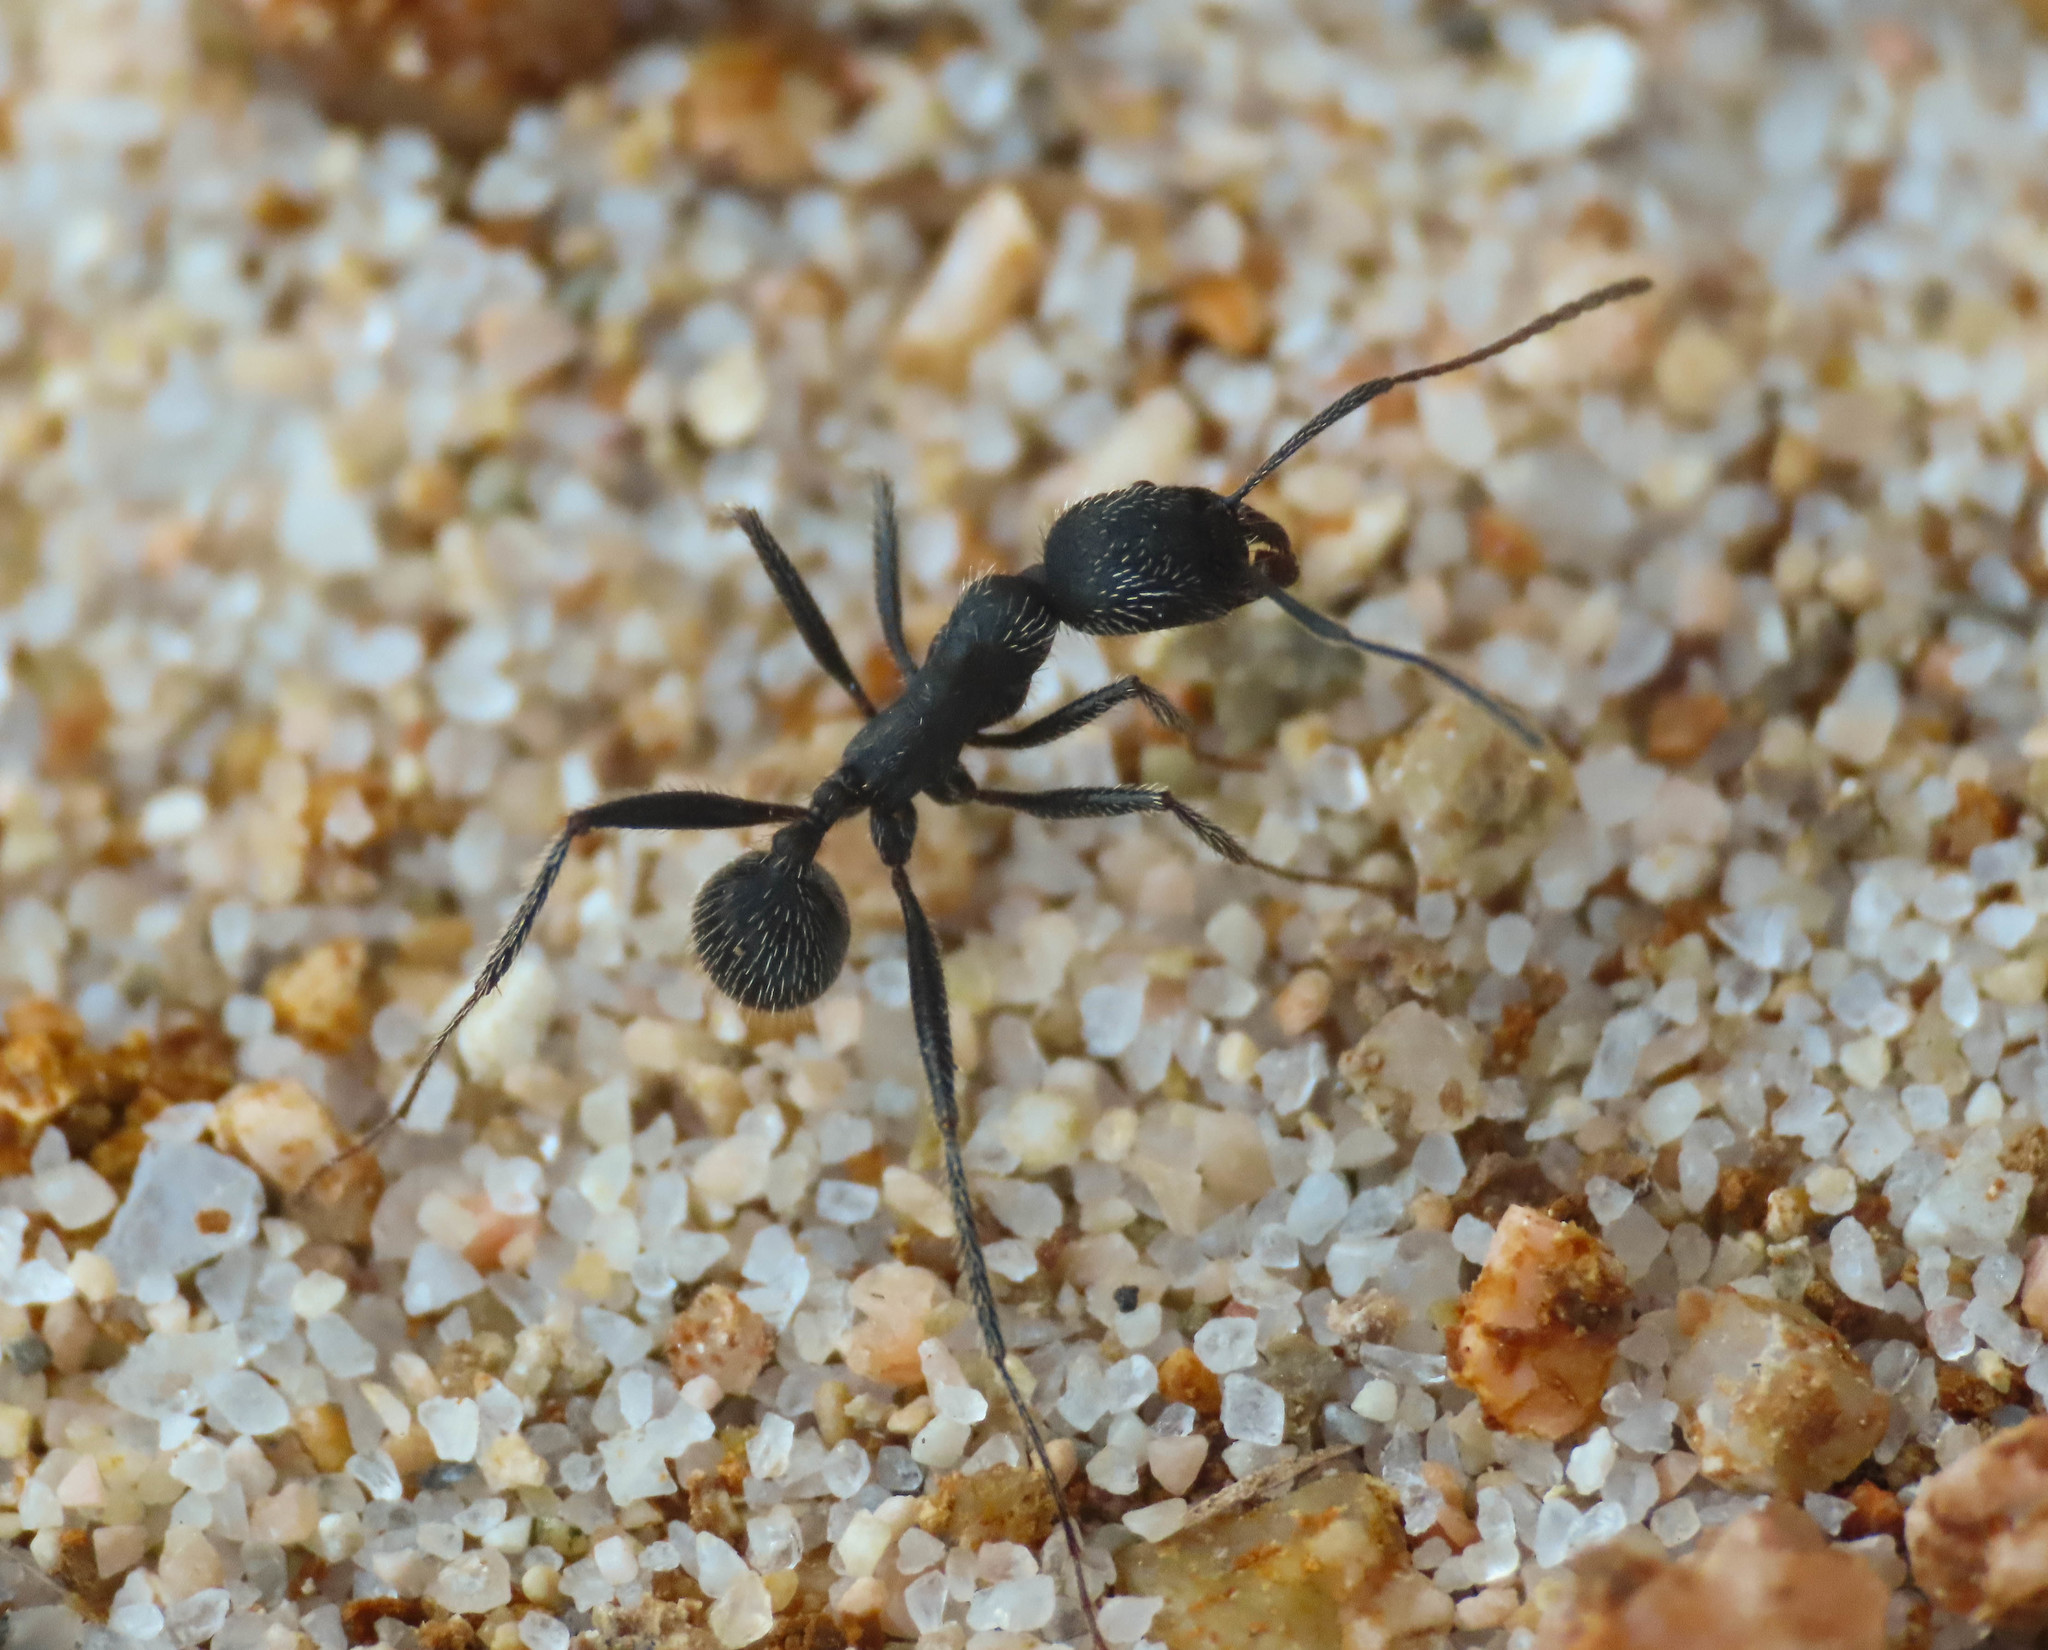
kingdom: Animalia
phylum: Arthropoda
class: Insecta
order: Hymenoptera
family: Formicidae
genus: Aphaenogaster
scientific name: Aphaenogaster senilis
